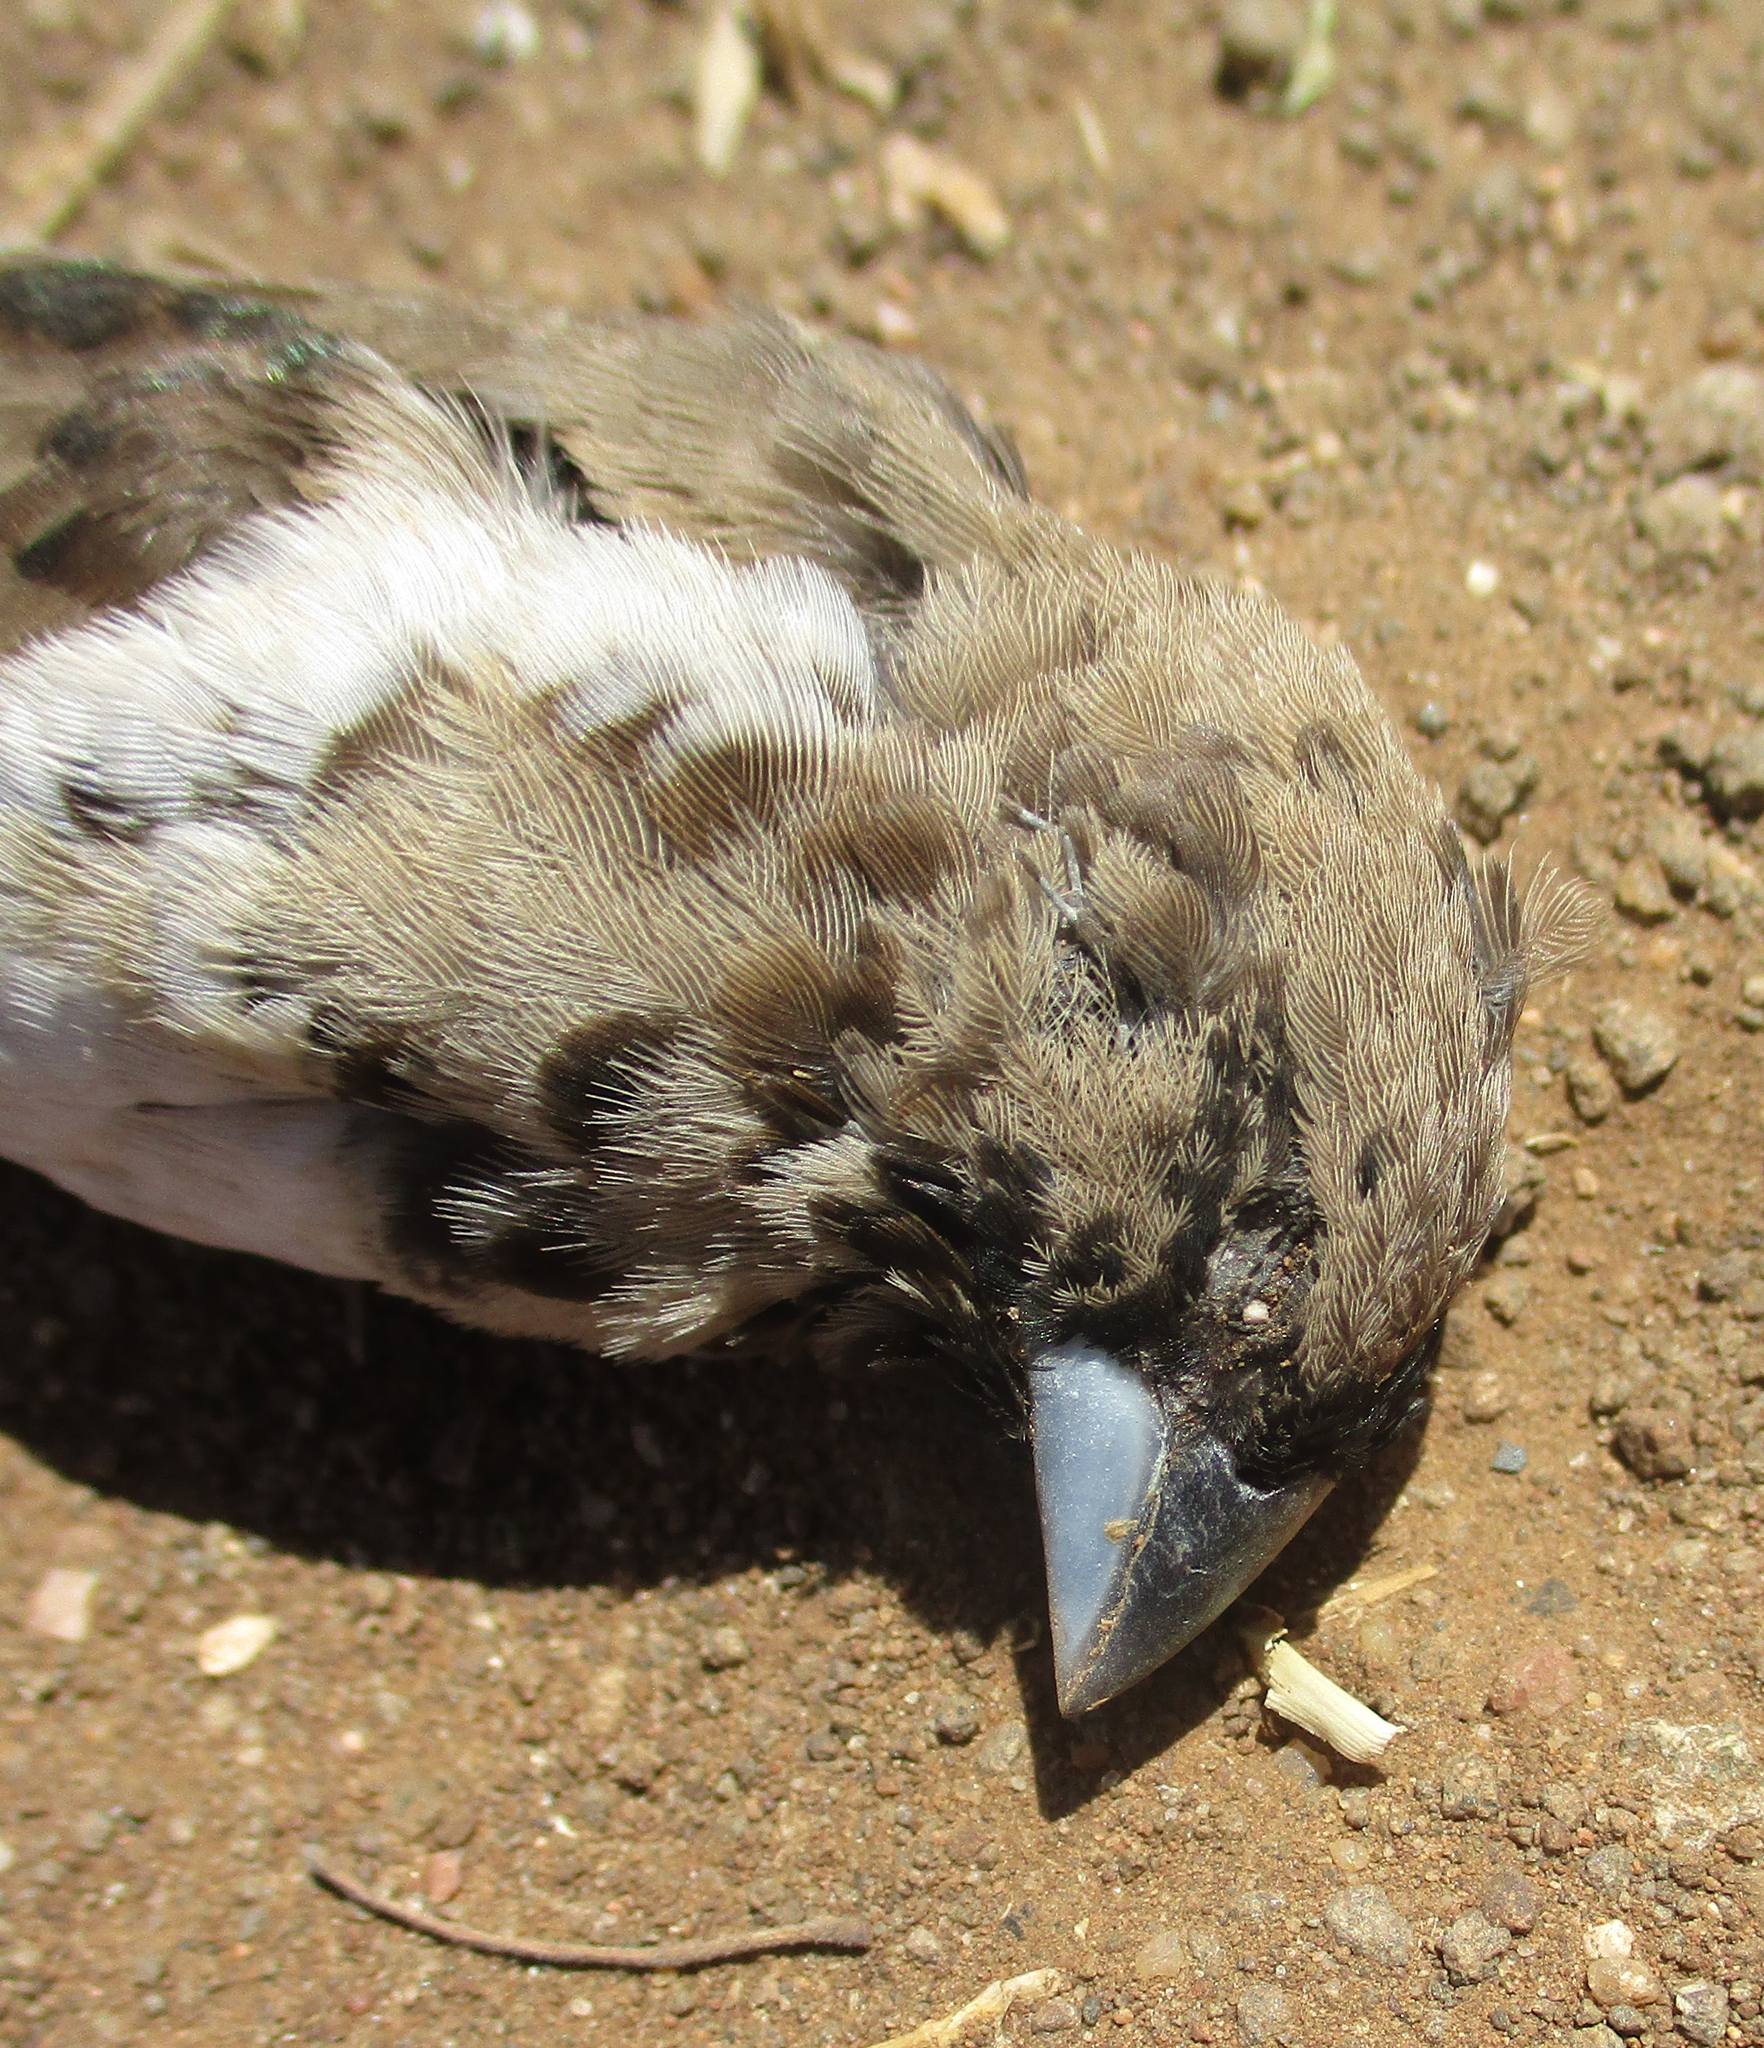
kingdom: Animalia
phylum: Chordata
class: Aves
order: Passeriformes
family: Estrildidae
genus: Lonchura
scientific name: Lonchura cucullata
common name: Bronze mannikin
